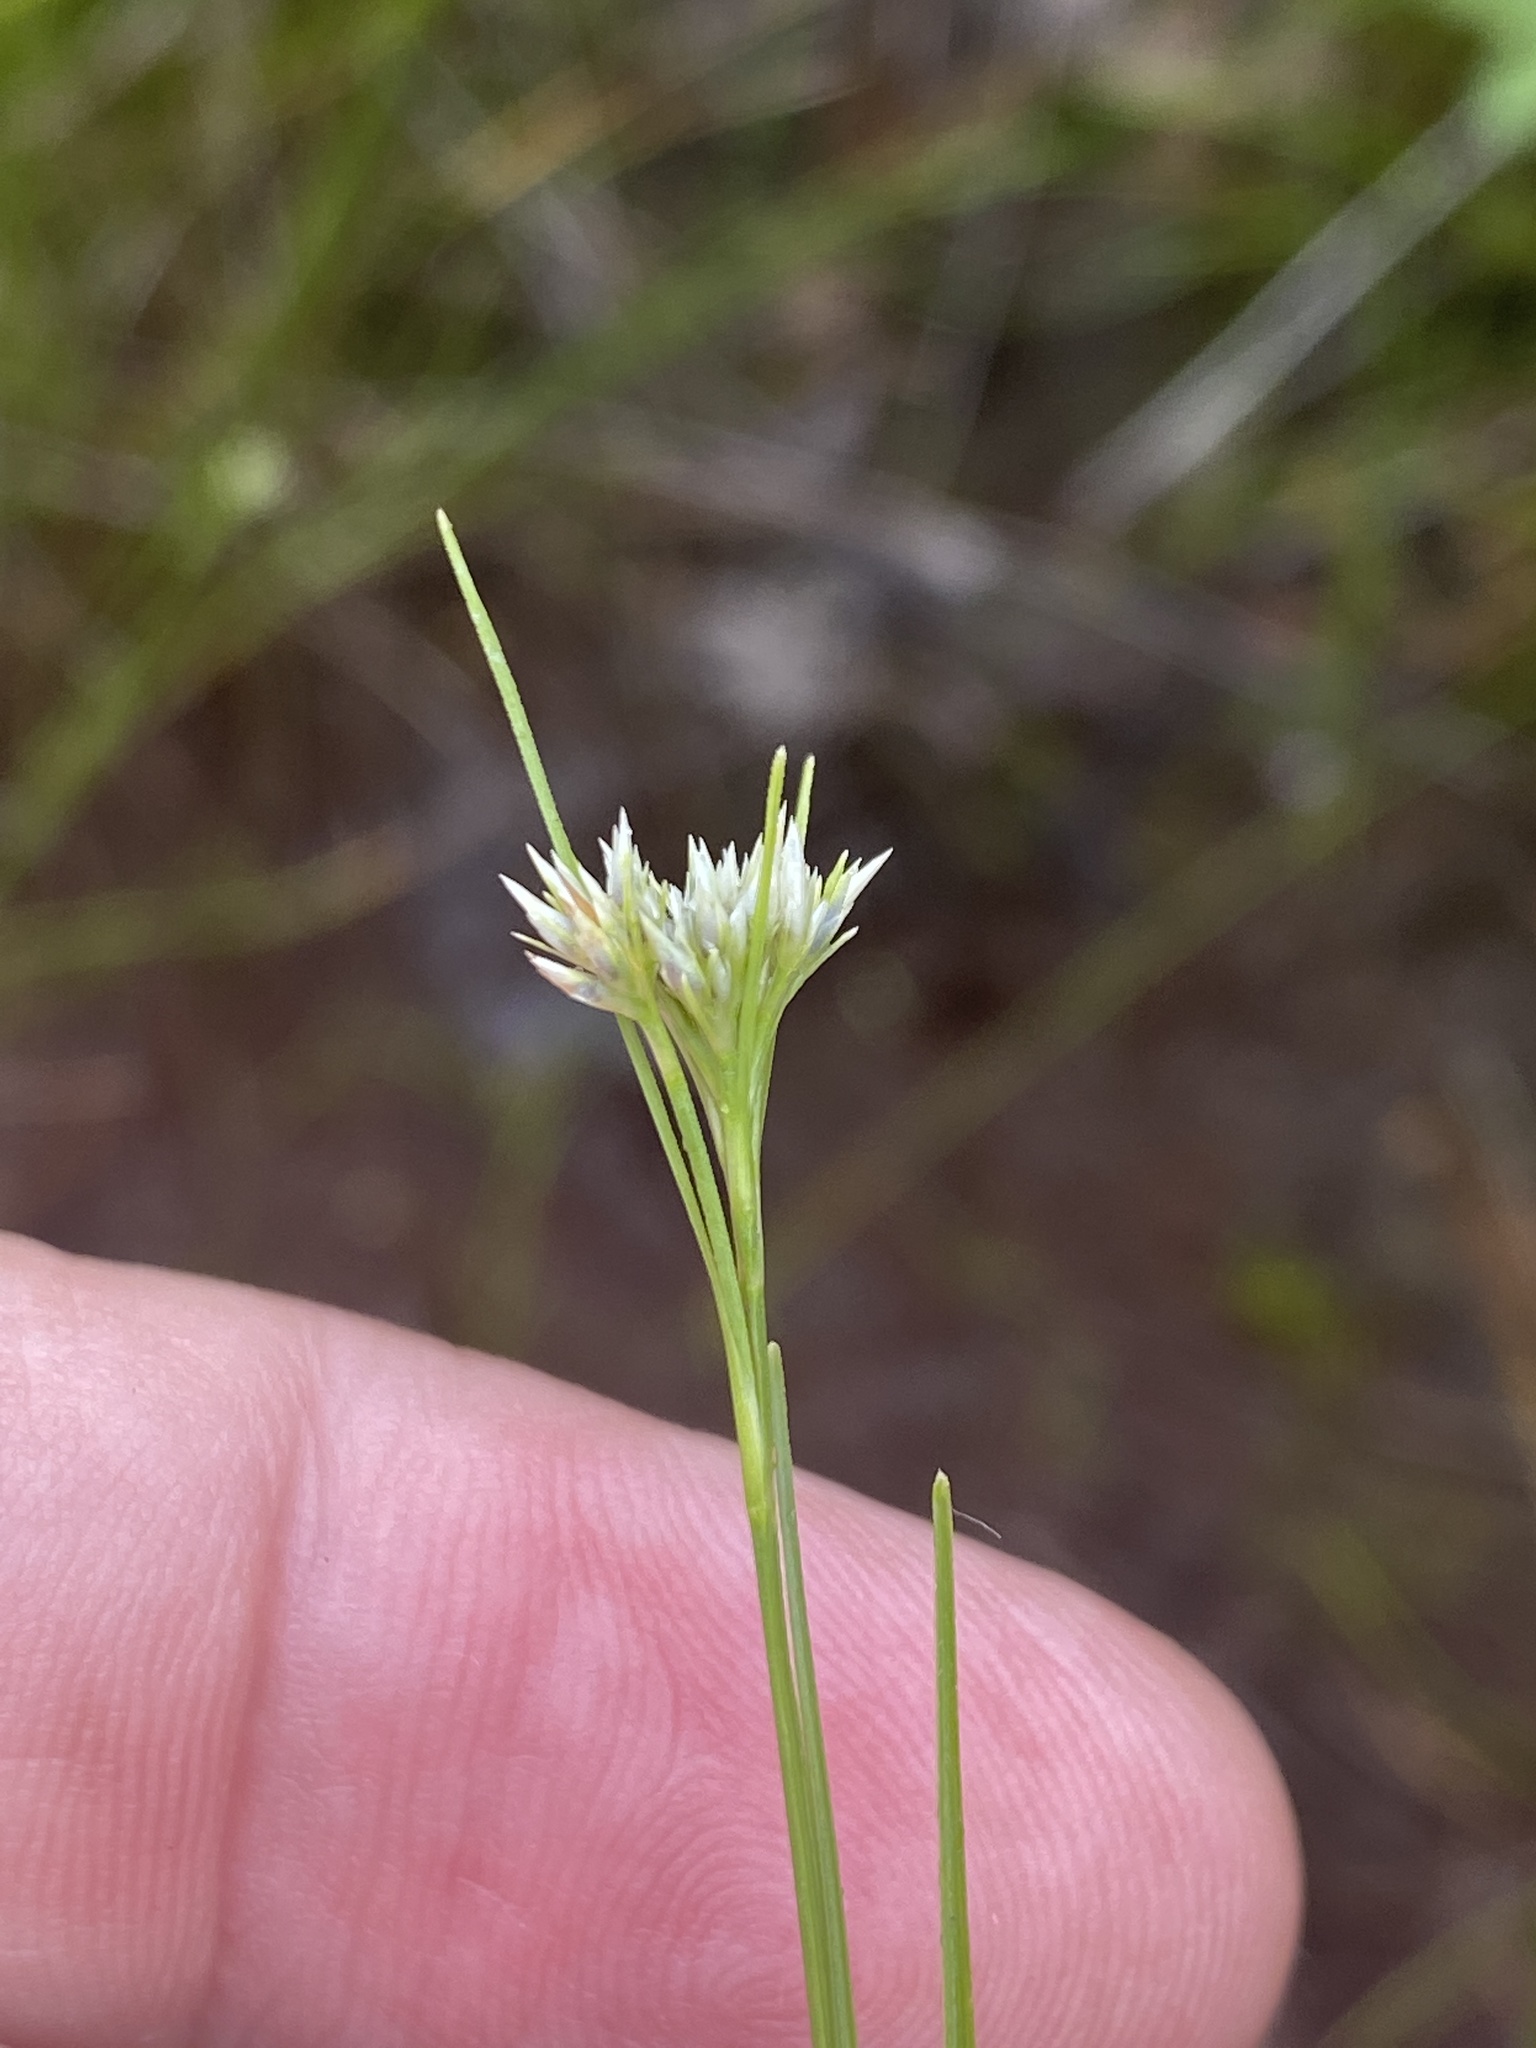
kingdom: Plantae
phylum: Tracheophyta
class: Liliopsida
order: Poales
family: Cyperaceae
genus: Rhynchospora
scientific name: Rhynchospora alba
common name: White beak-sedge
